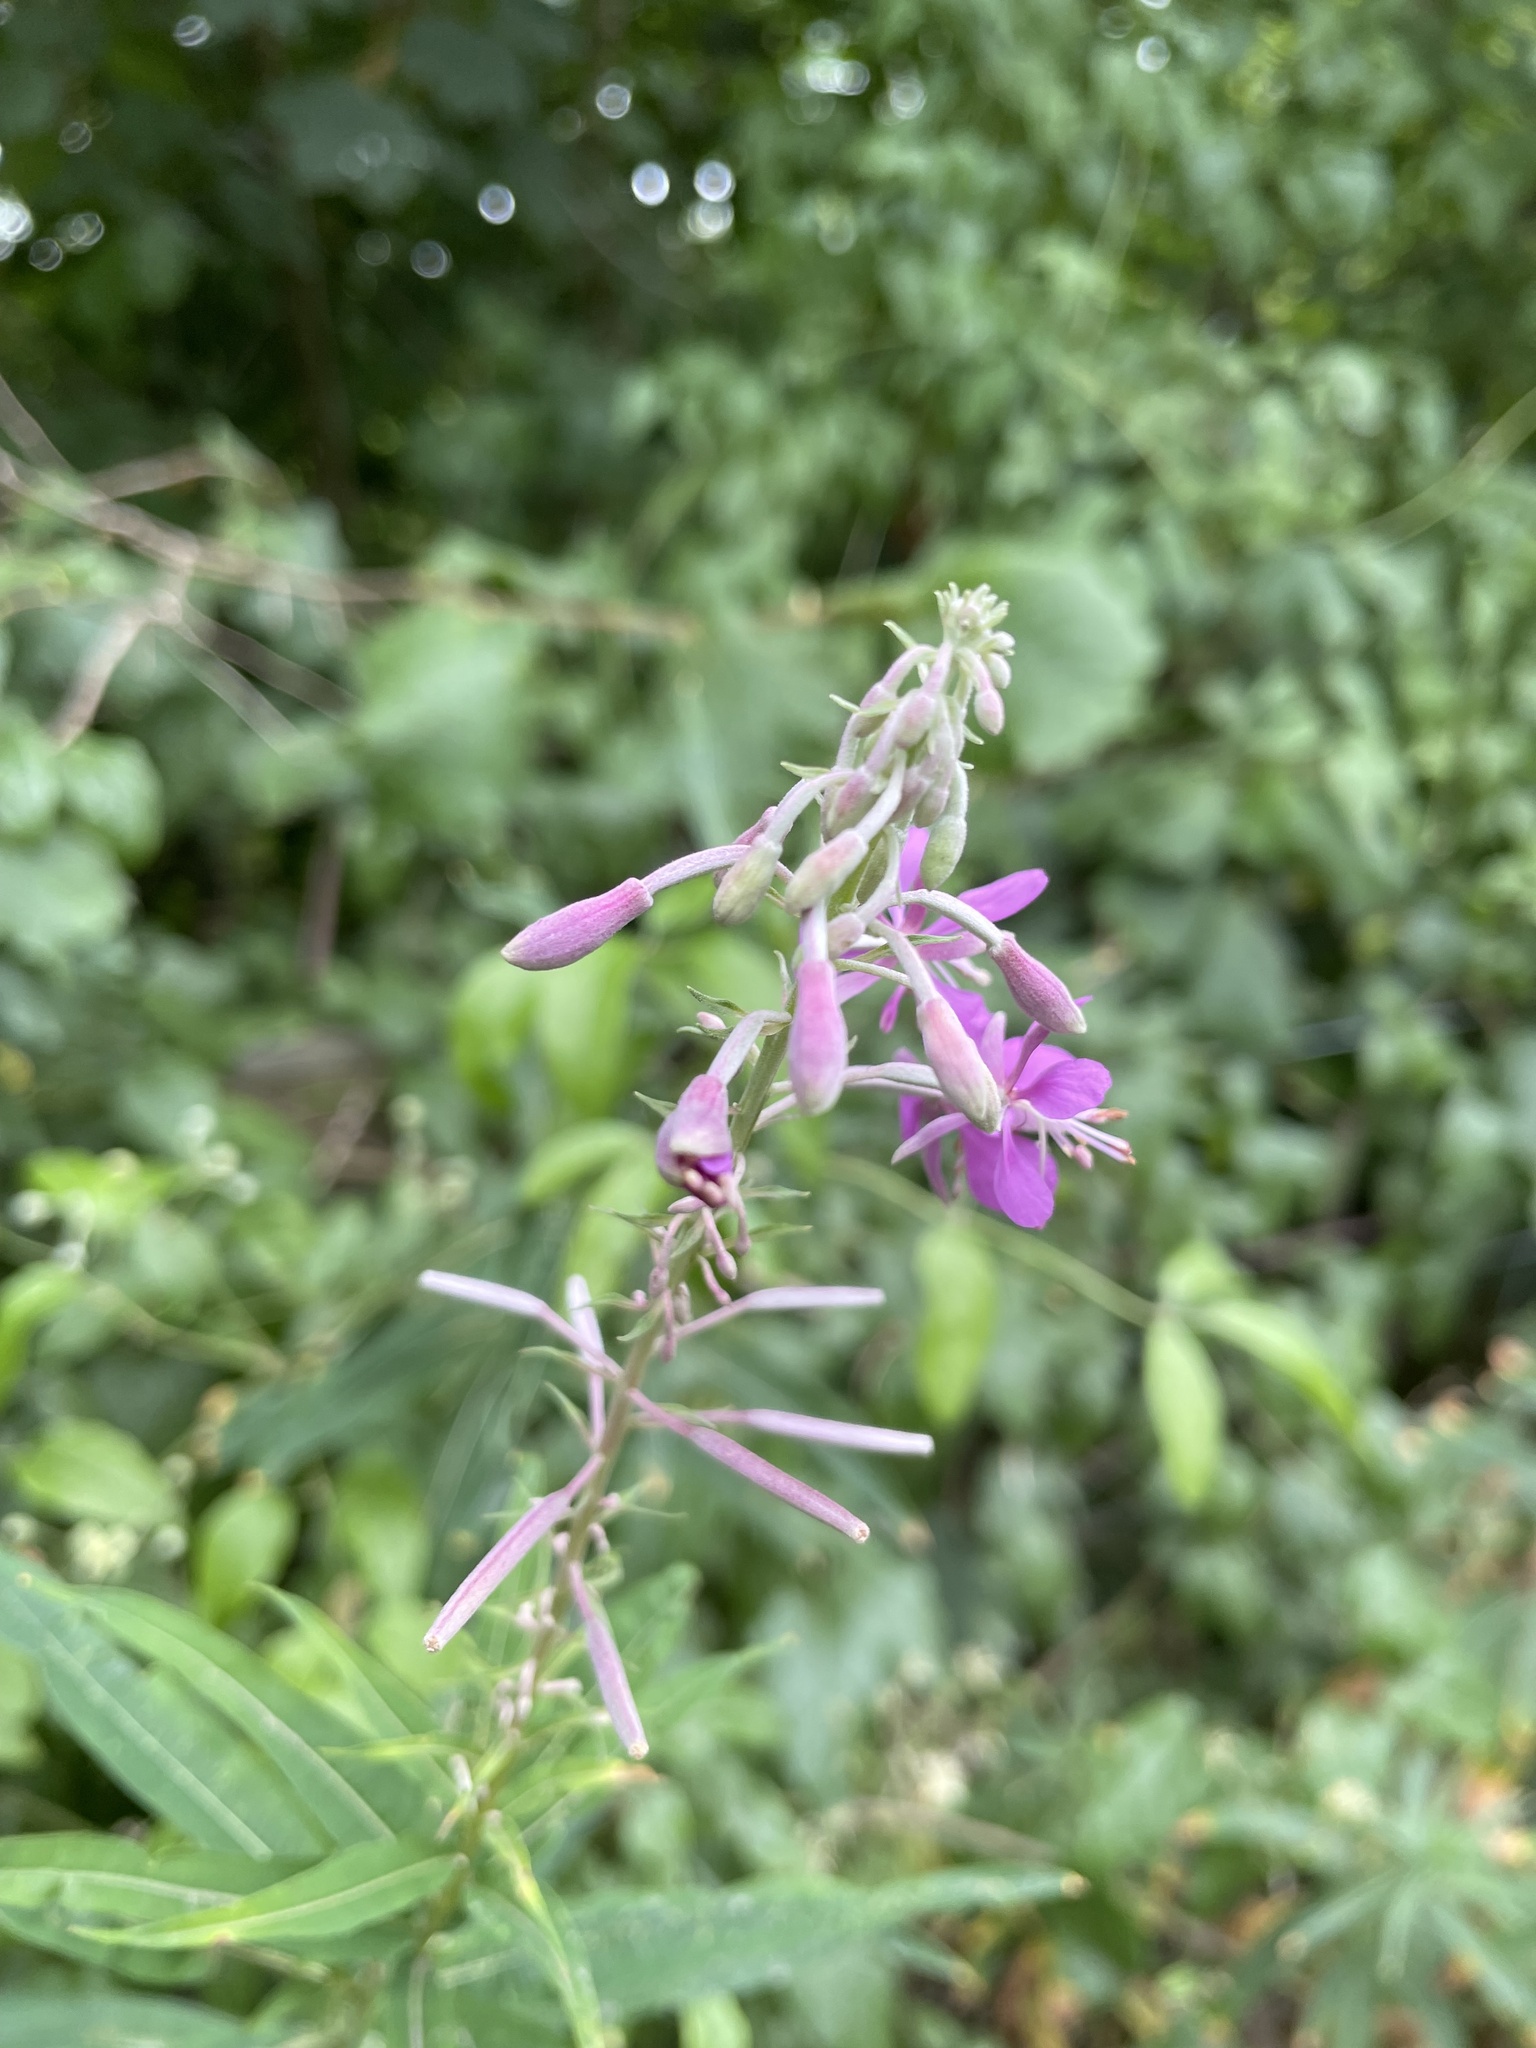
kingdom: Plantae
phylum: Tracheophyta
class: Magnoliopsida
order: Myrtales
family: Onagraceae
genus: Chamaenerion
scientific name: Chamaenerion angustifolium
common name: Fireweed
